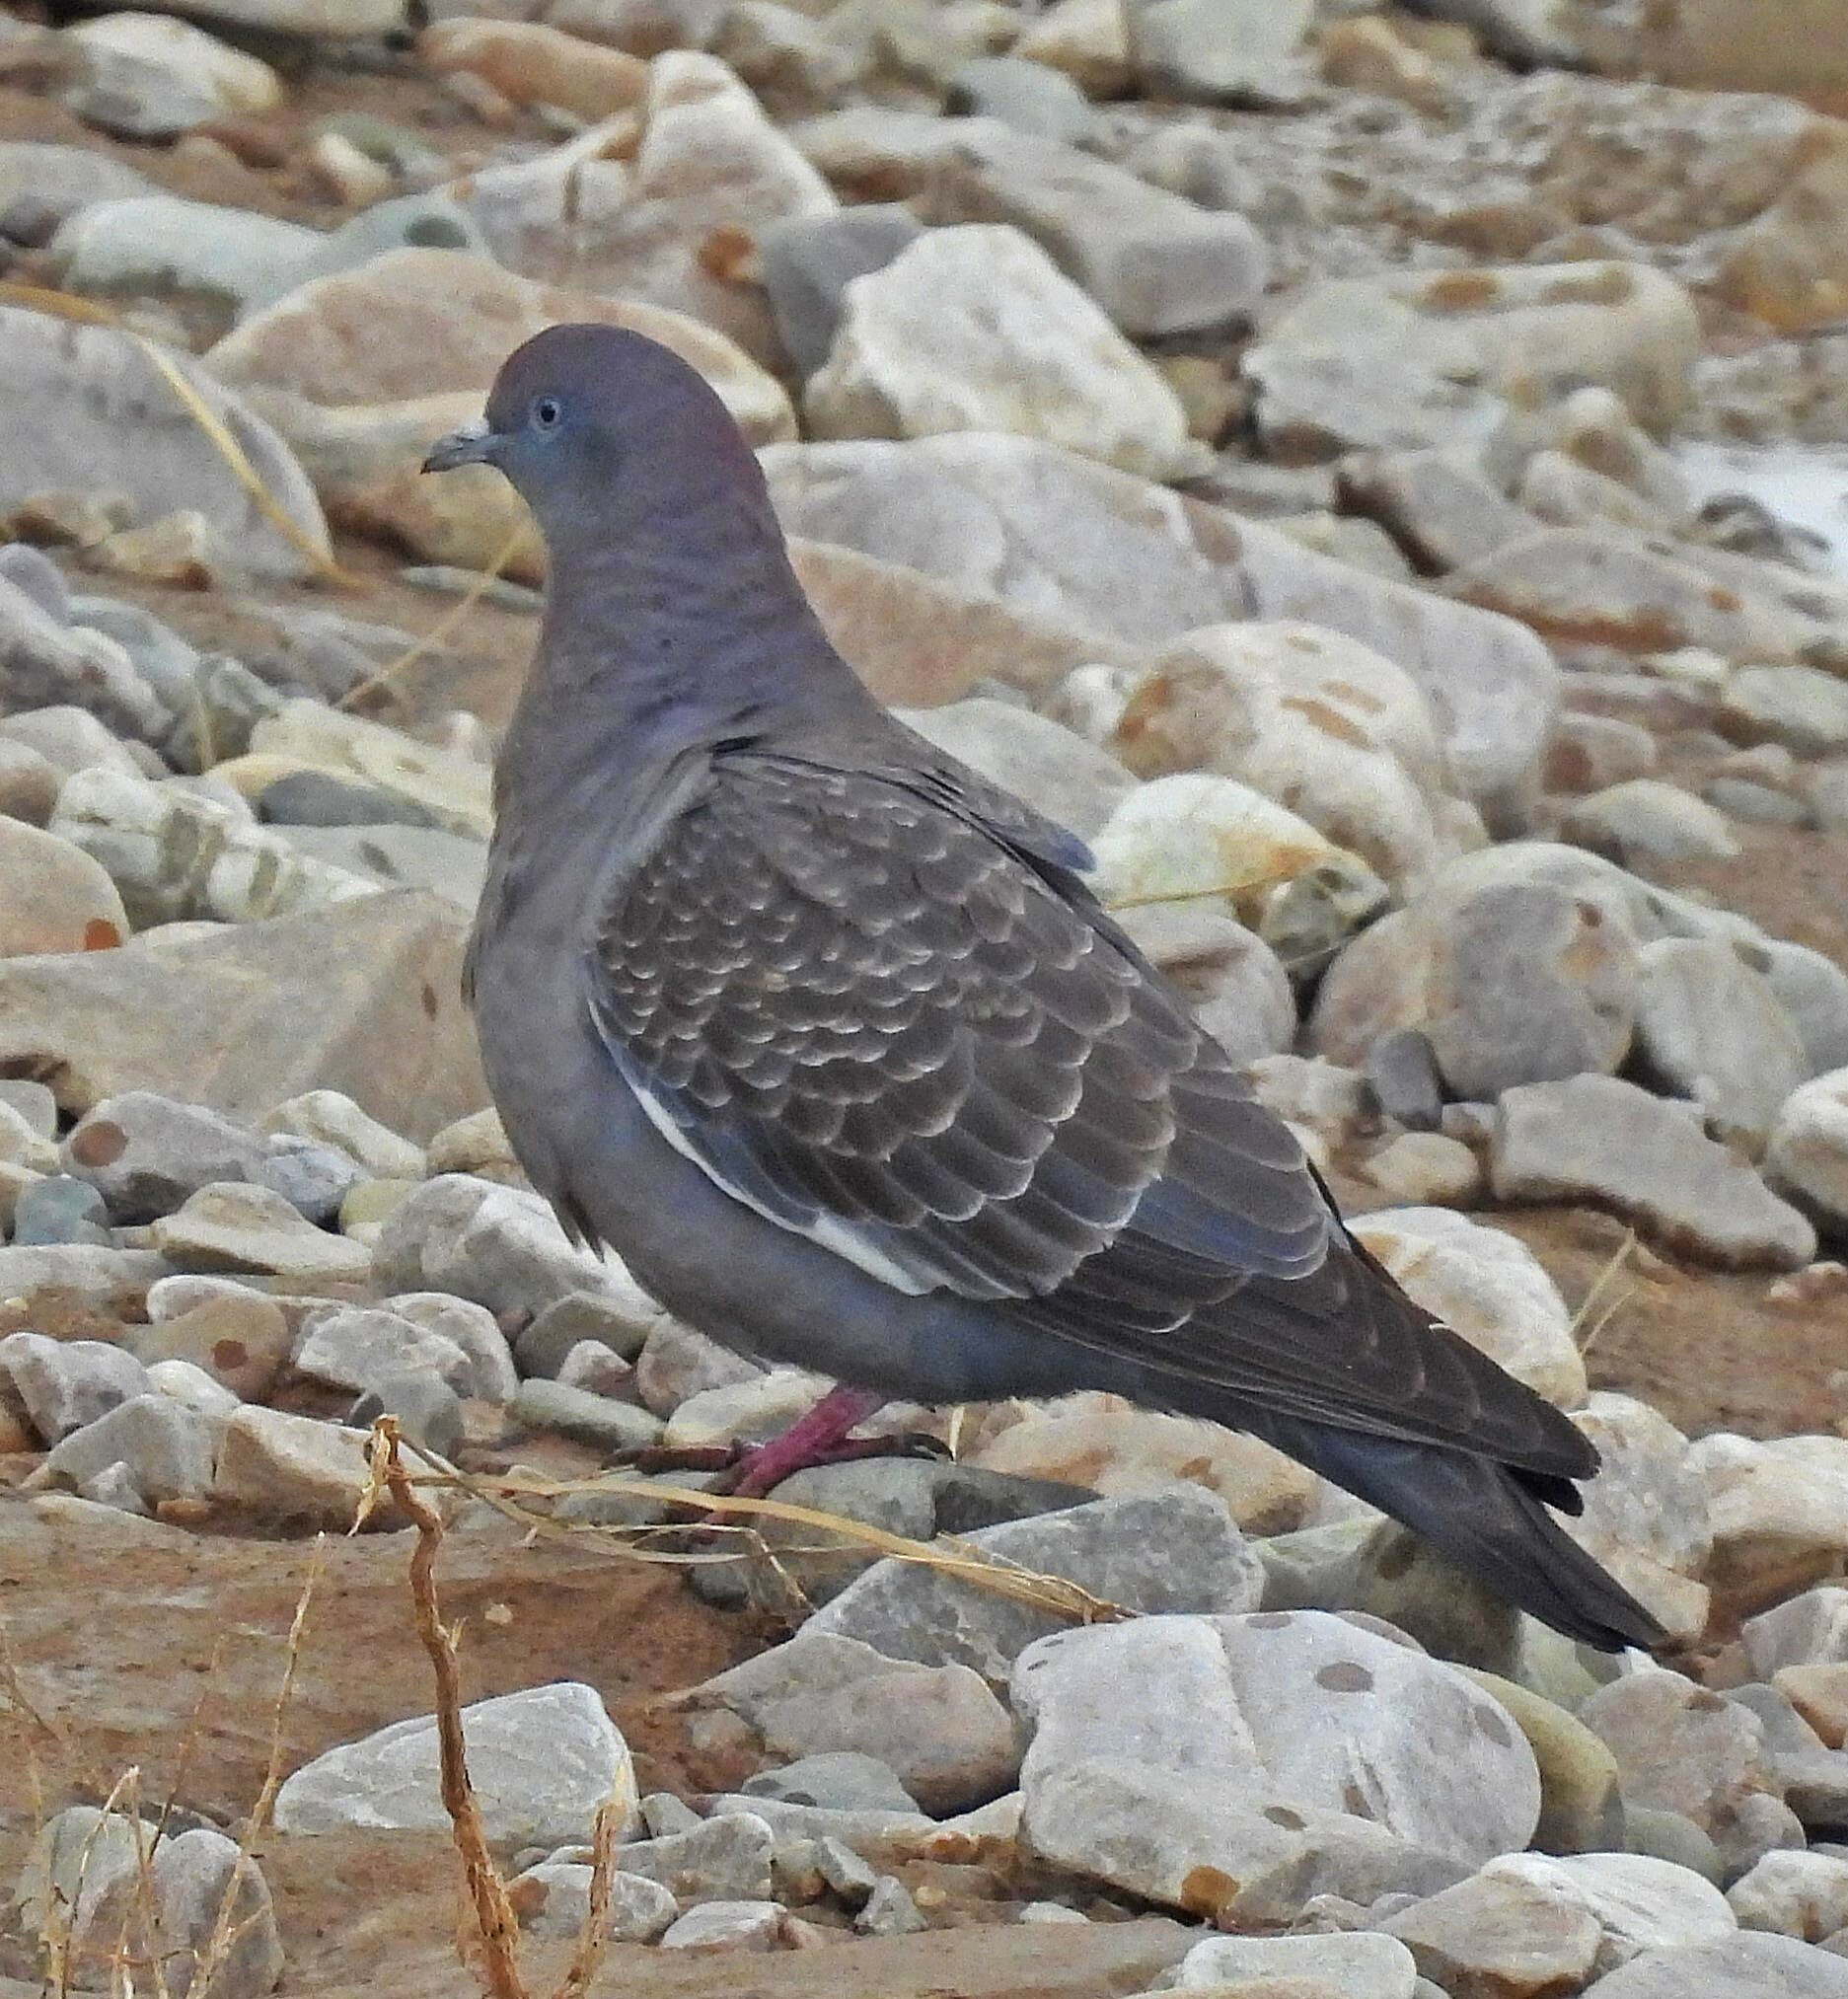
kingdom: Animalia
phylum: Chordata
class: Aves
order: Columbiformes
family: Columbidae
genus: Patagioenas
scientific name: Patagioenas maculosa
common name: Spot-winged pigeon
